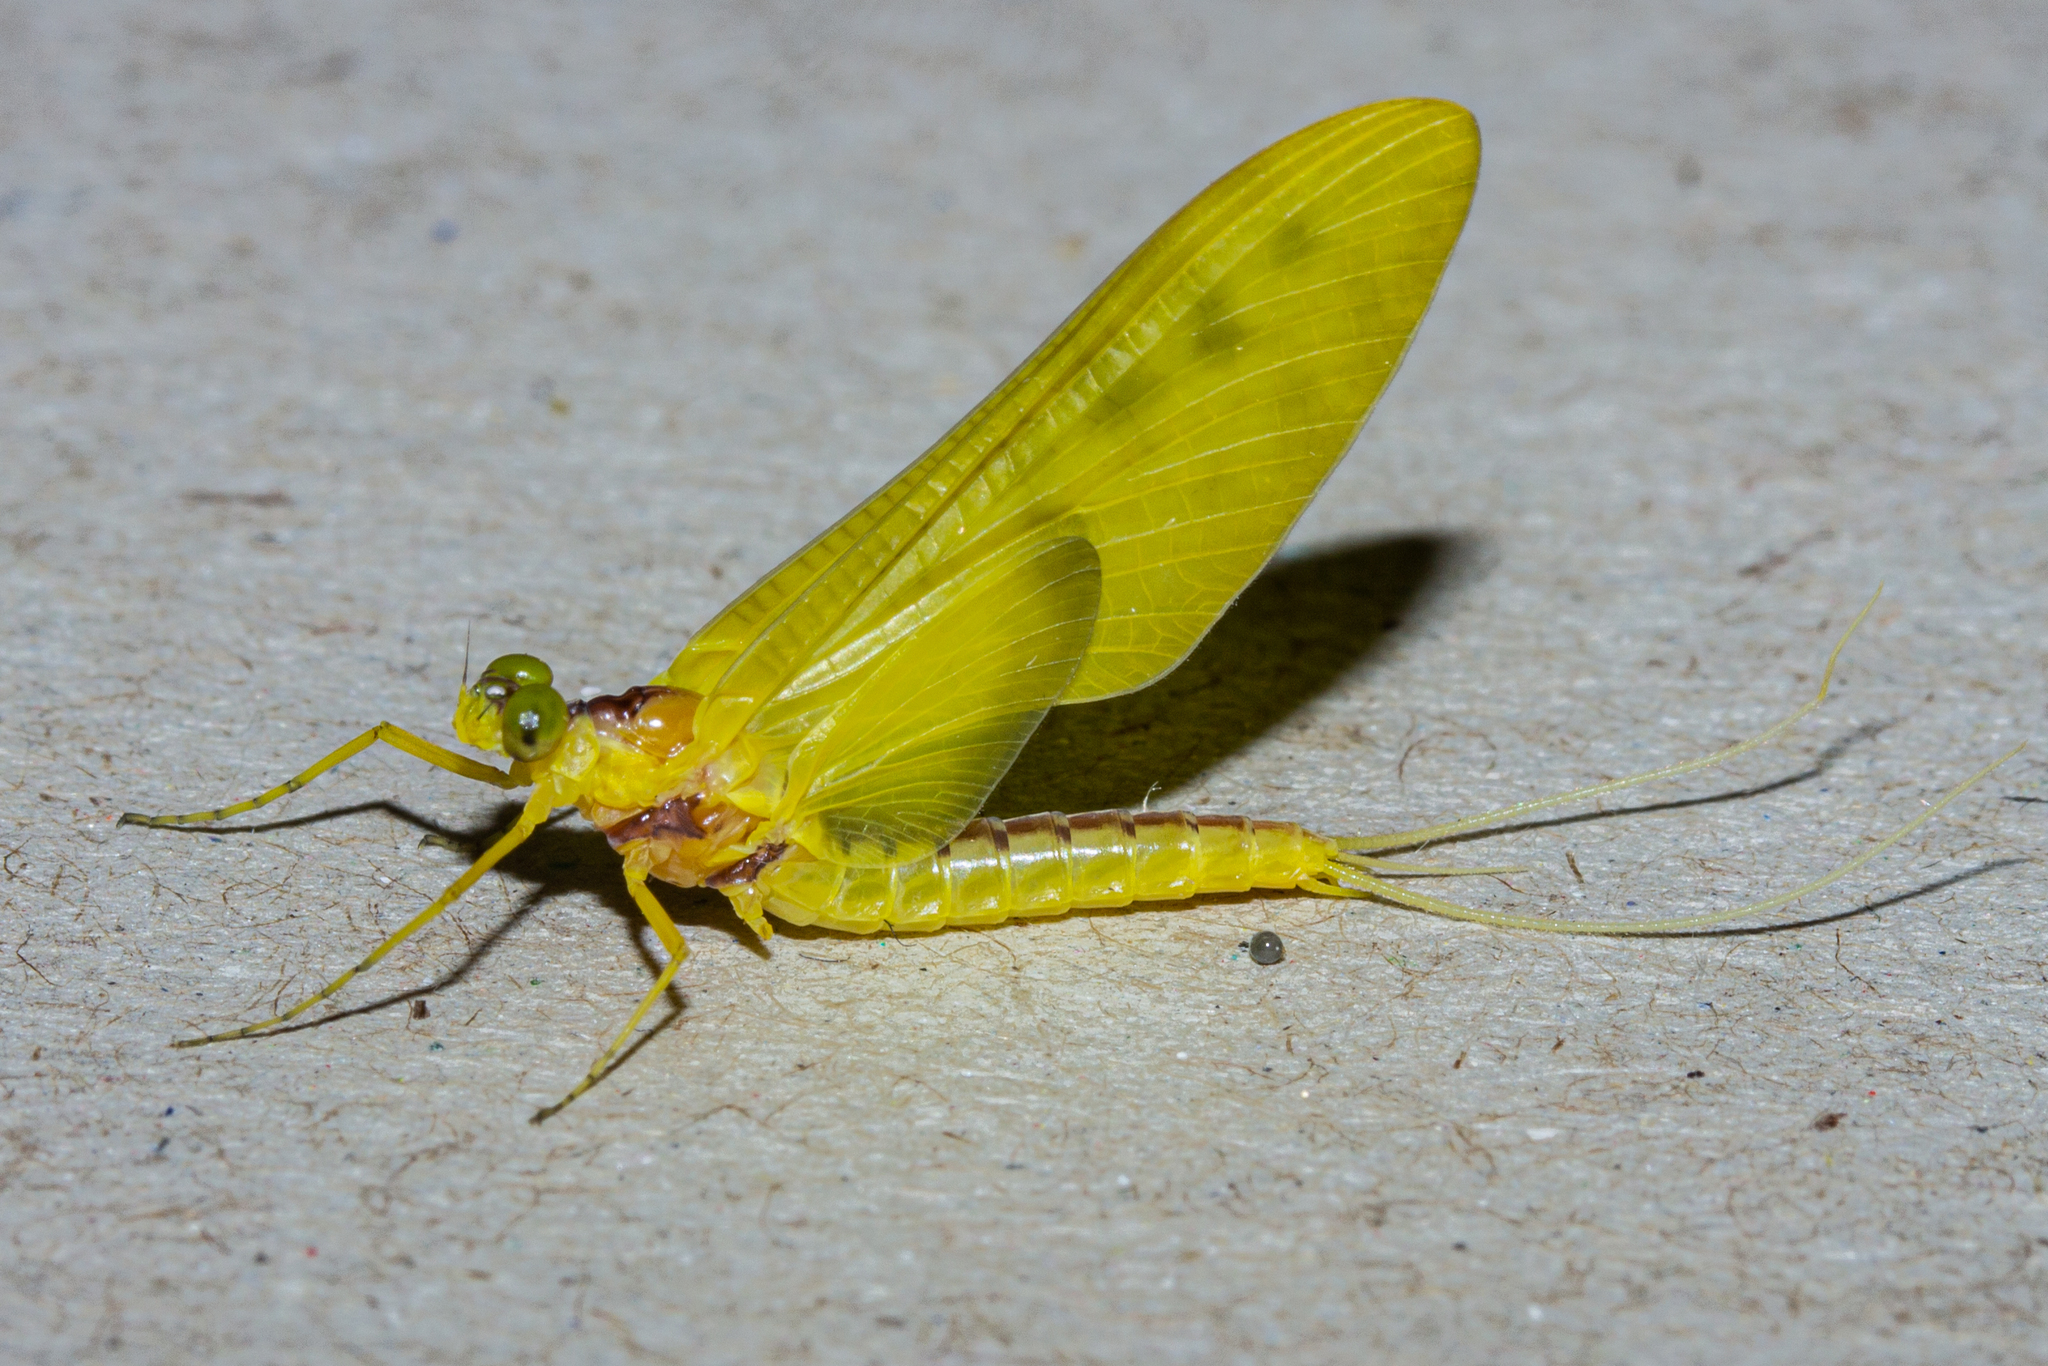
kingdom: Animalia
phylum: Arthropoda
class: Insecta
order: Ephemeroptera
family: Ameletopsidae
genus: Ameletopsis
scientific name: Ameletopsis perscitus
